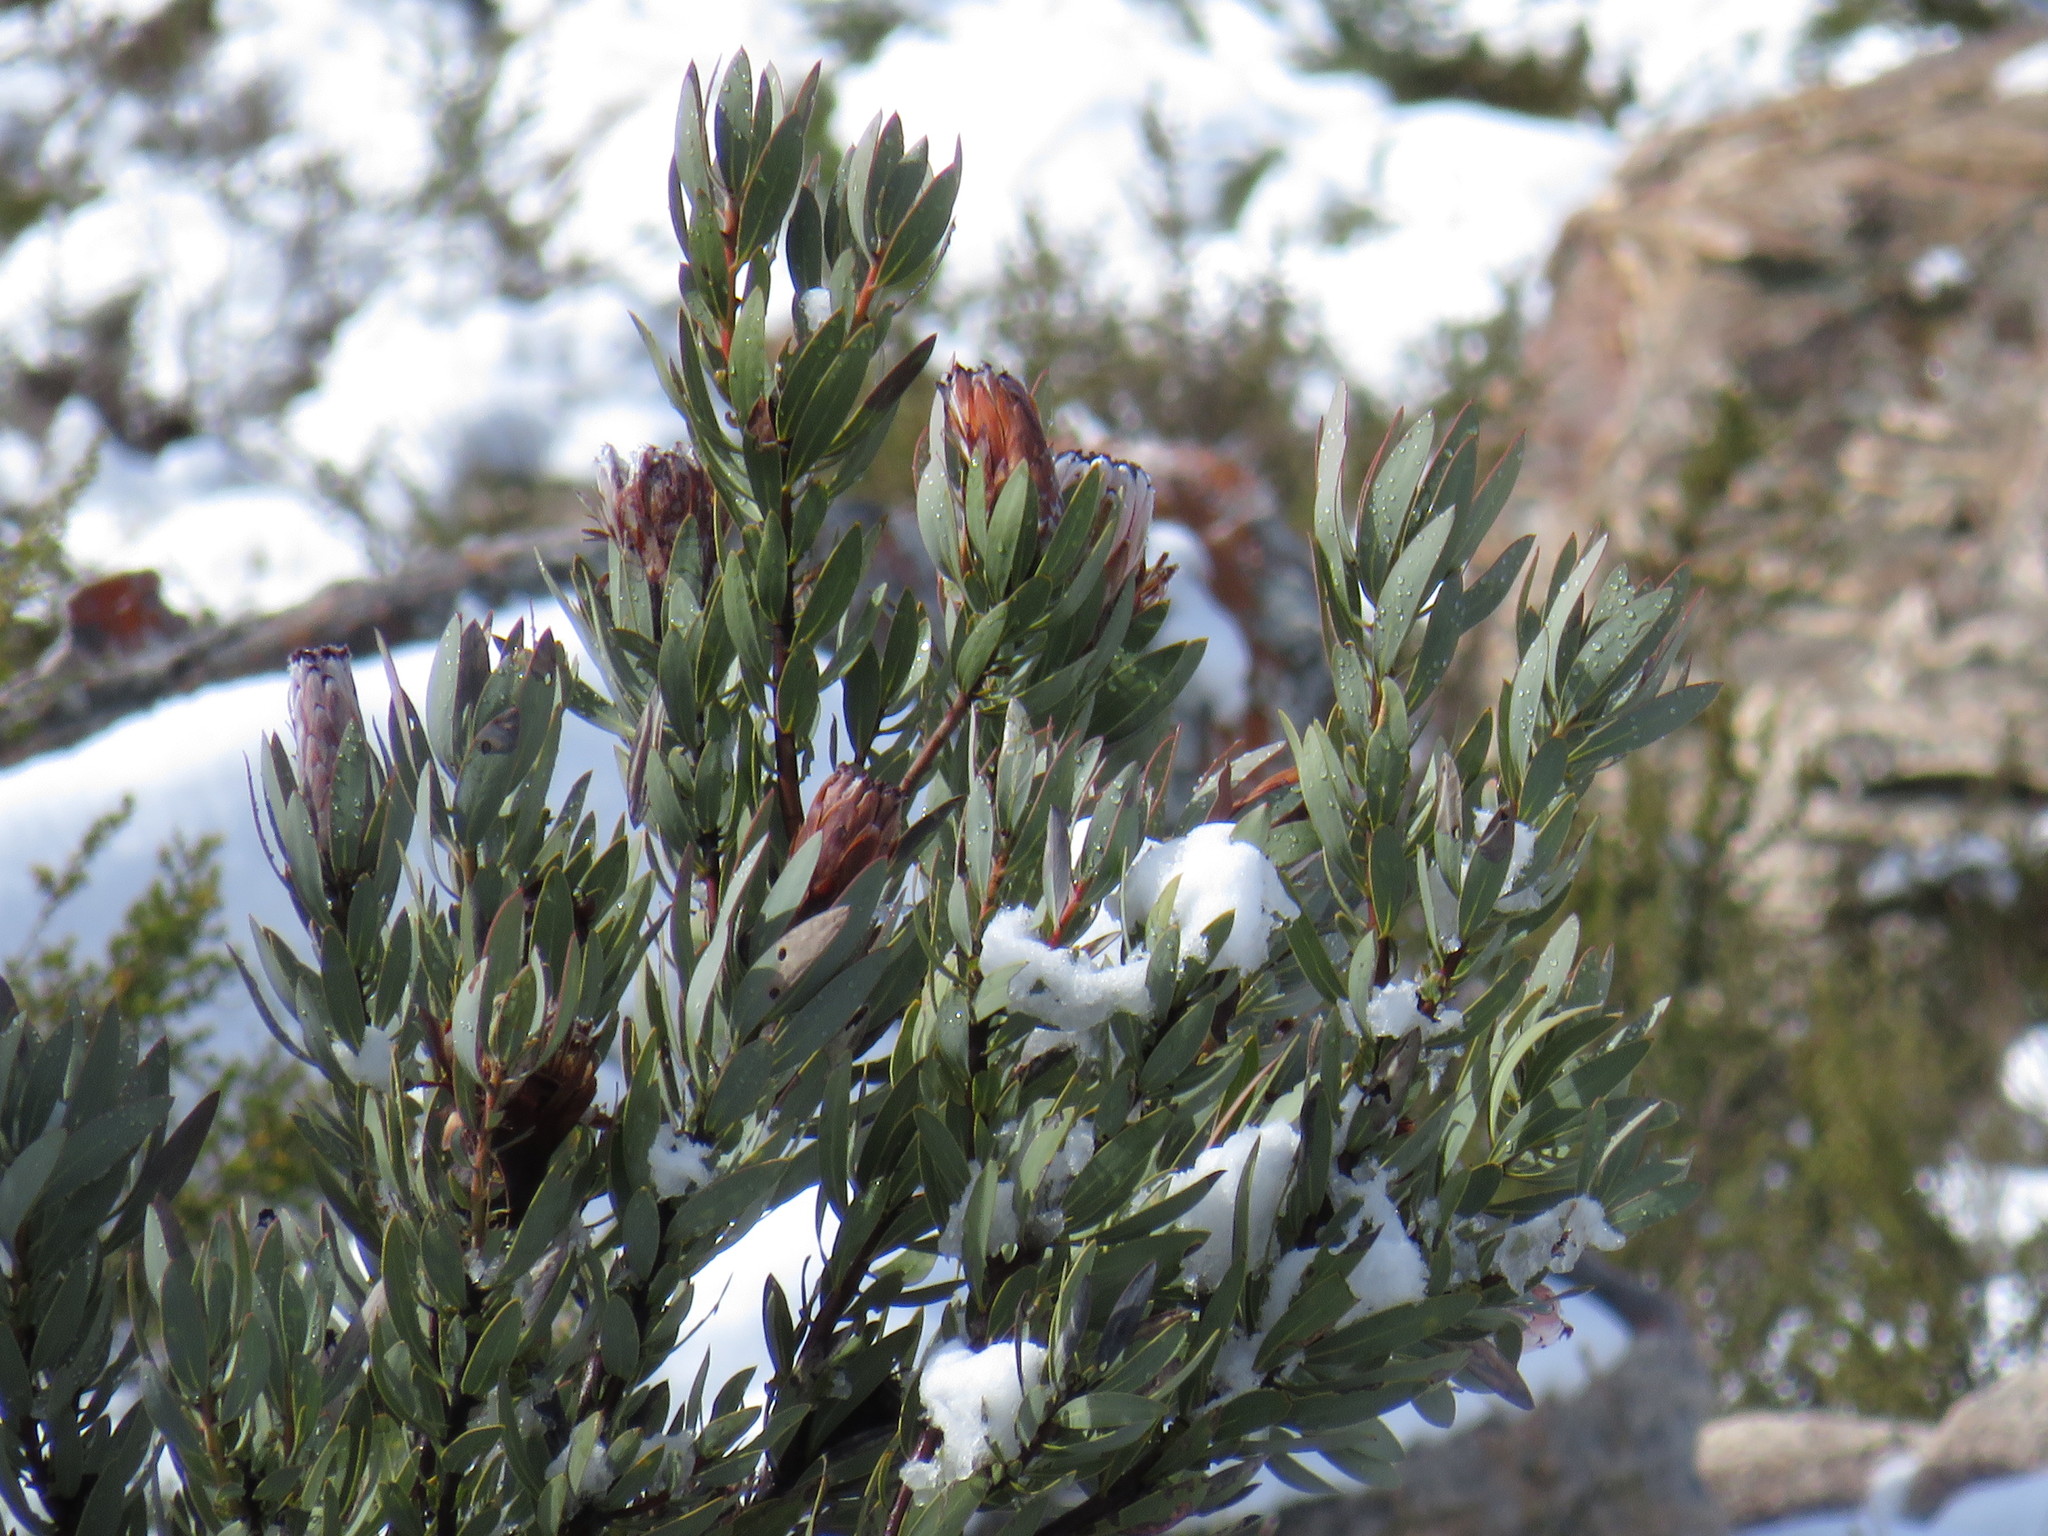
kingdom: Plantae
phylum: Tracheophyta
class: Magnoliopsida
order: Proteales
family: Proteaceae
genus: Protea
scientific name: Protea laurifolia
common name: Grey-leaf sugarbsh
